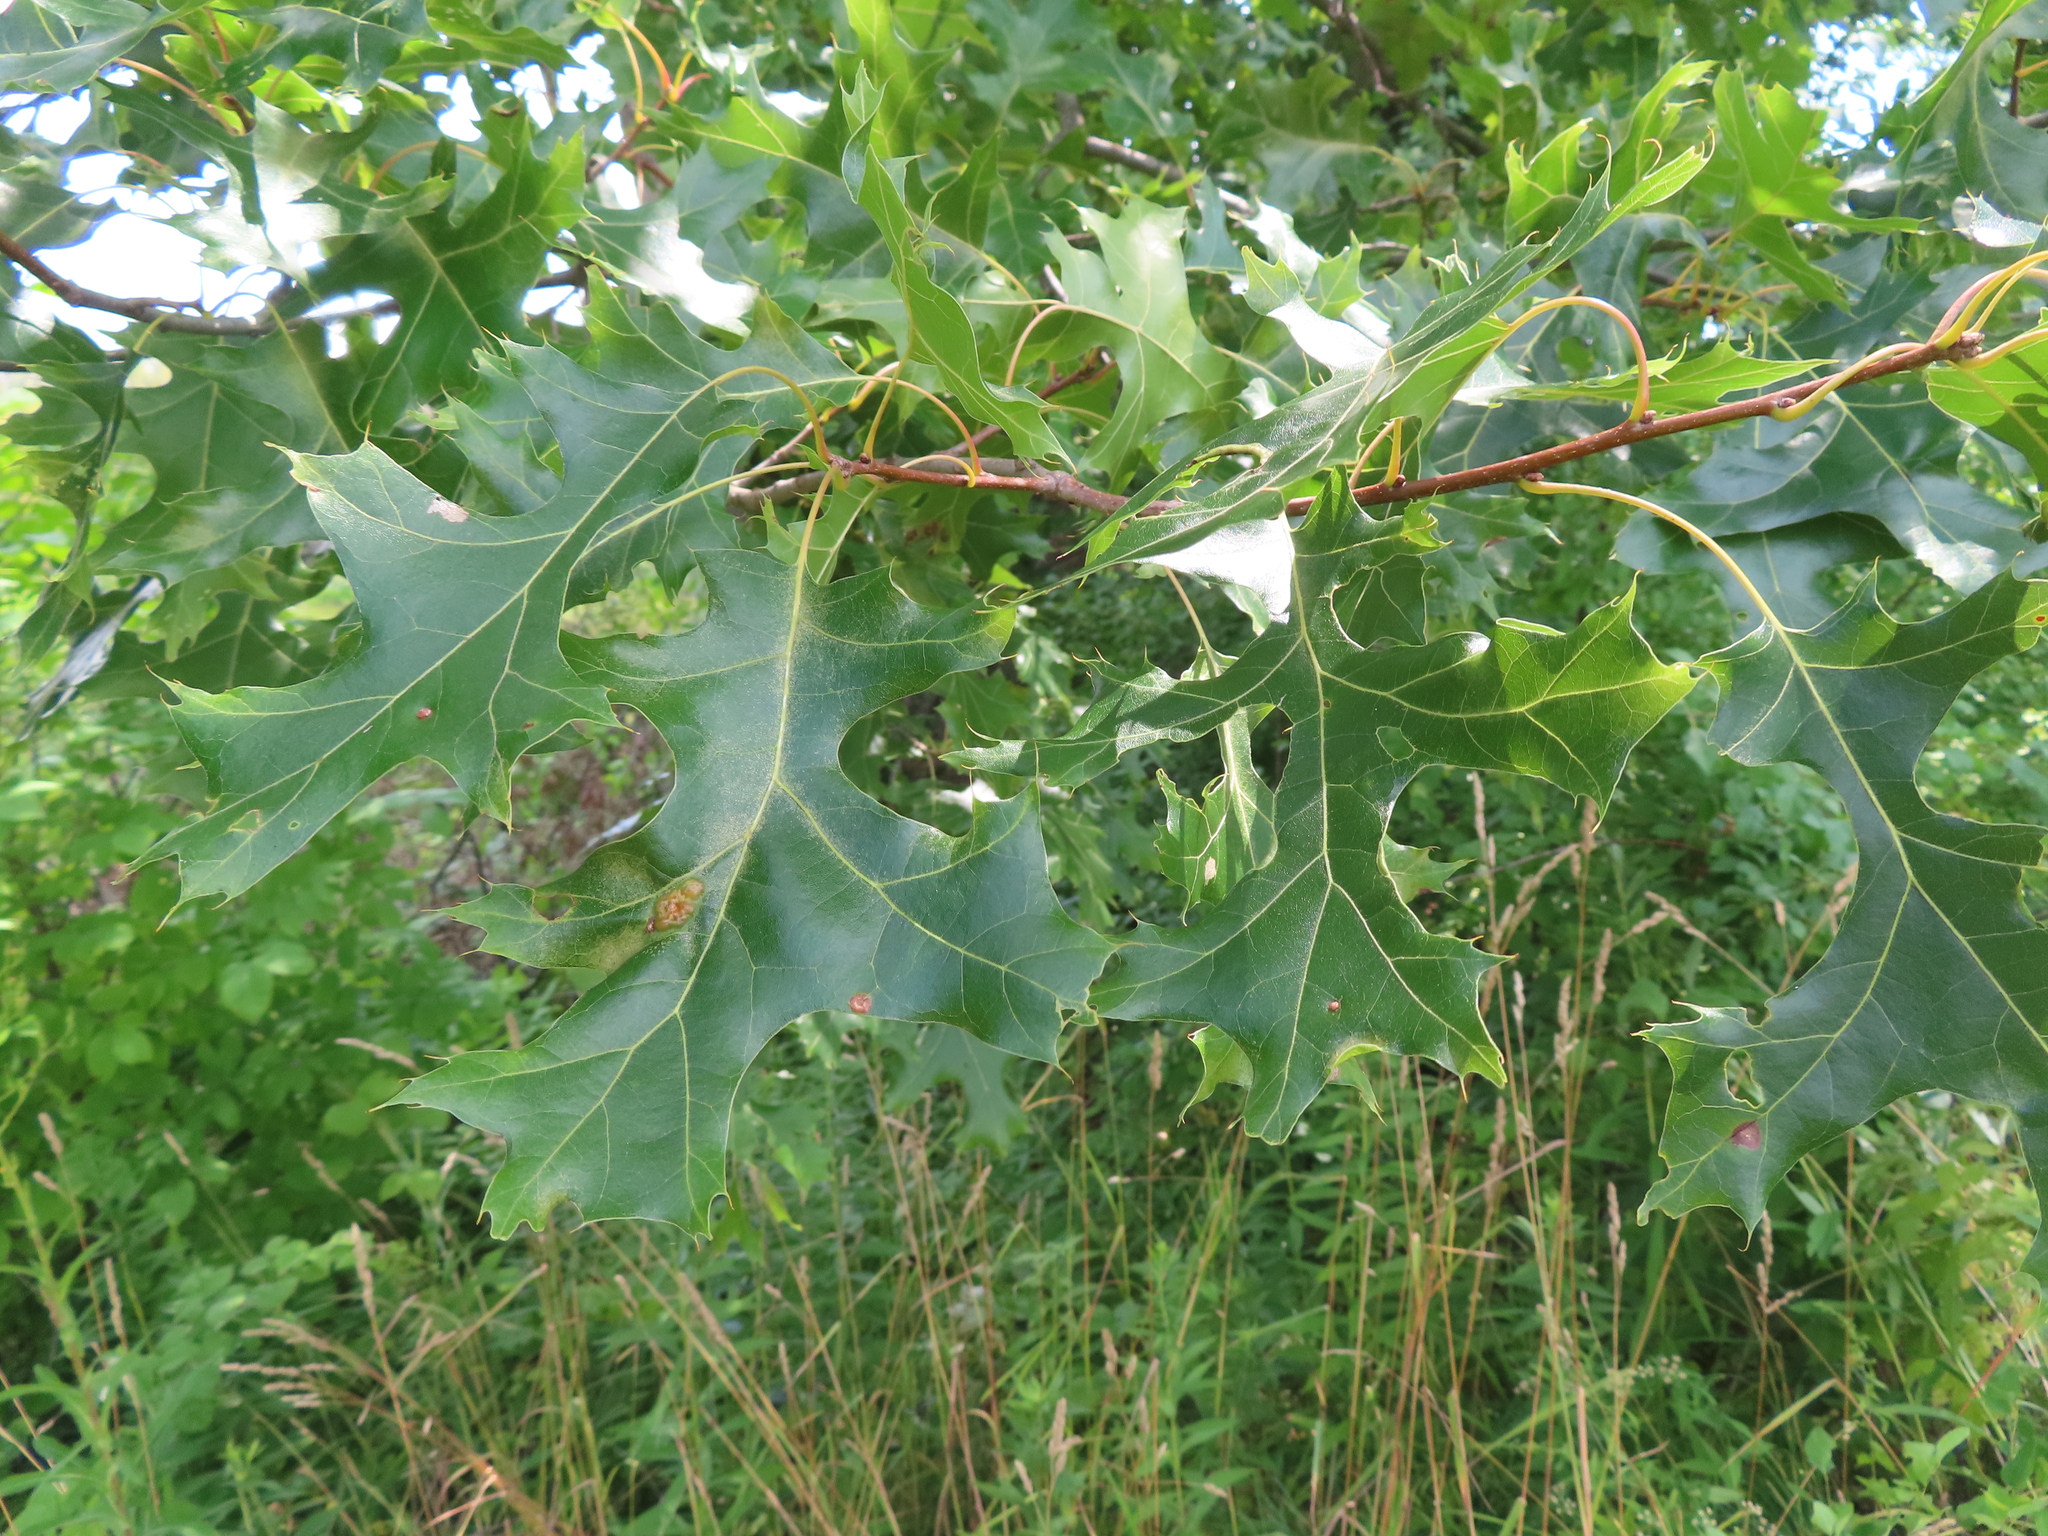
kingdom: Animalia
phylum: Arthropoda
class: Insecta
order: Diptera
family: Cecidomyiidae
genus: Polystepha
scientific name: Polystepha pilulae
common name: Oak leaf gall midge
